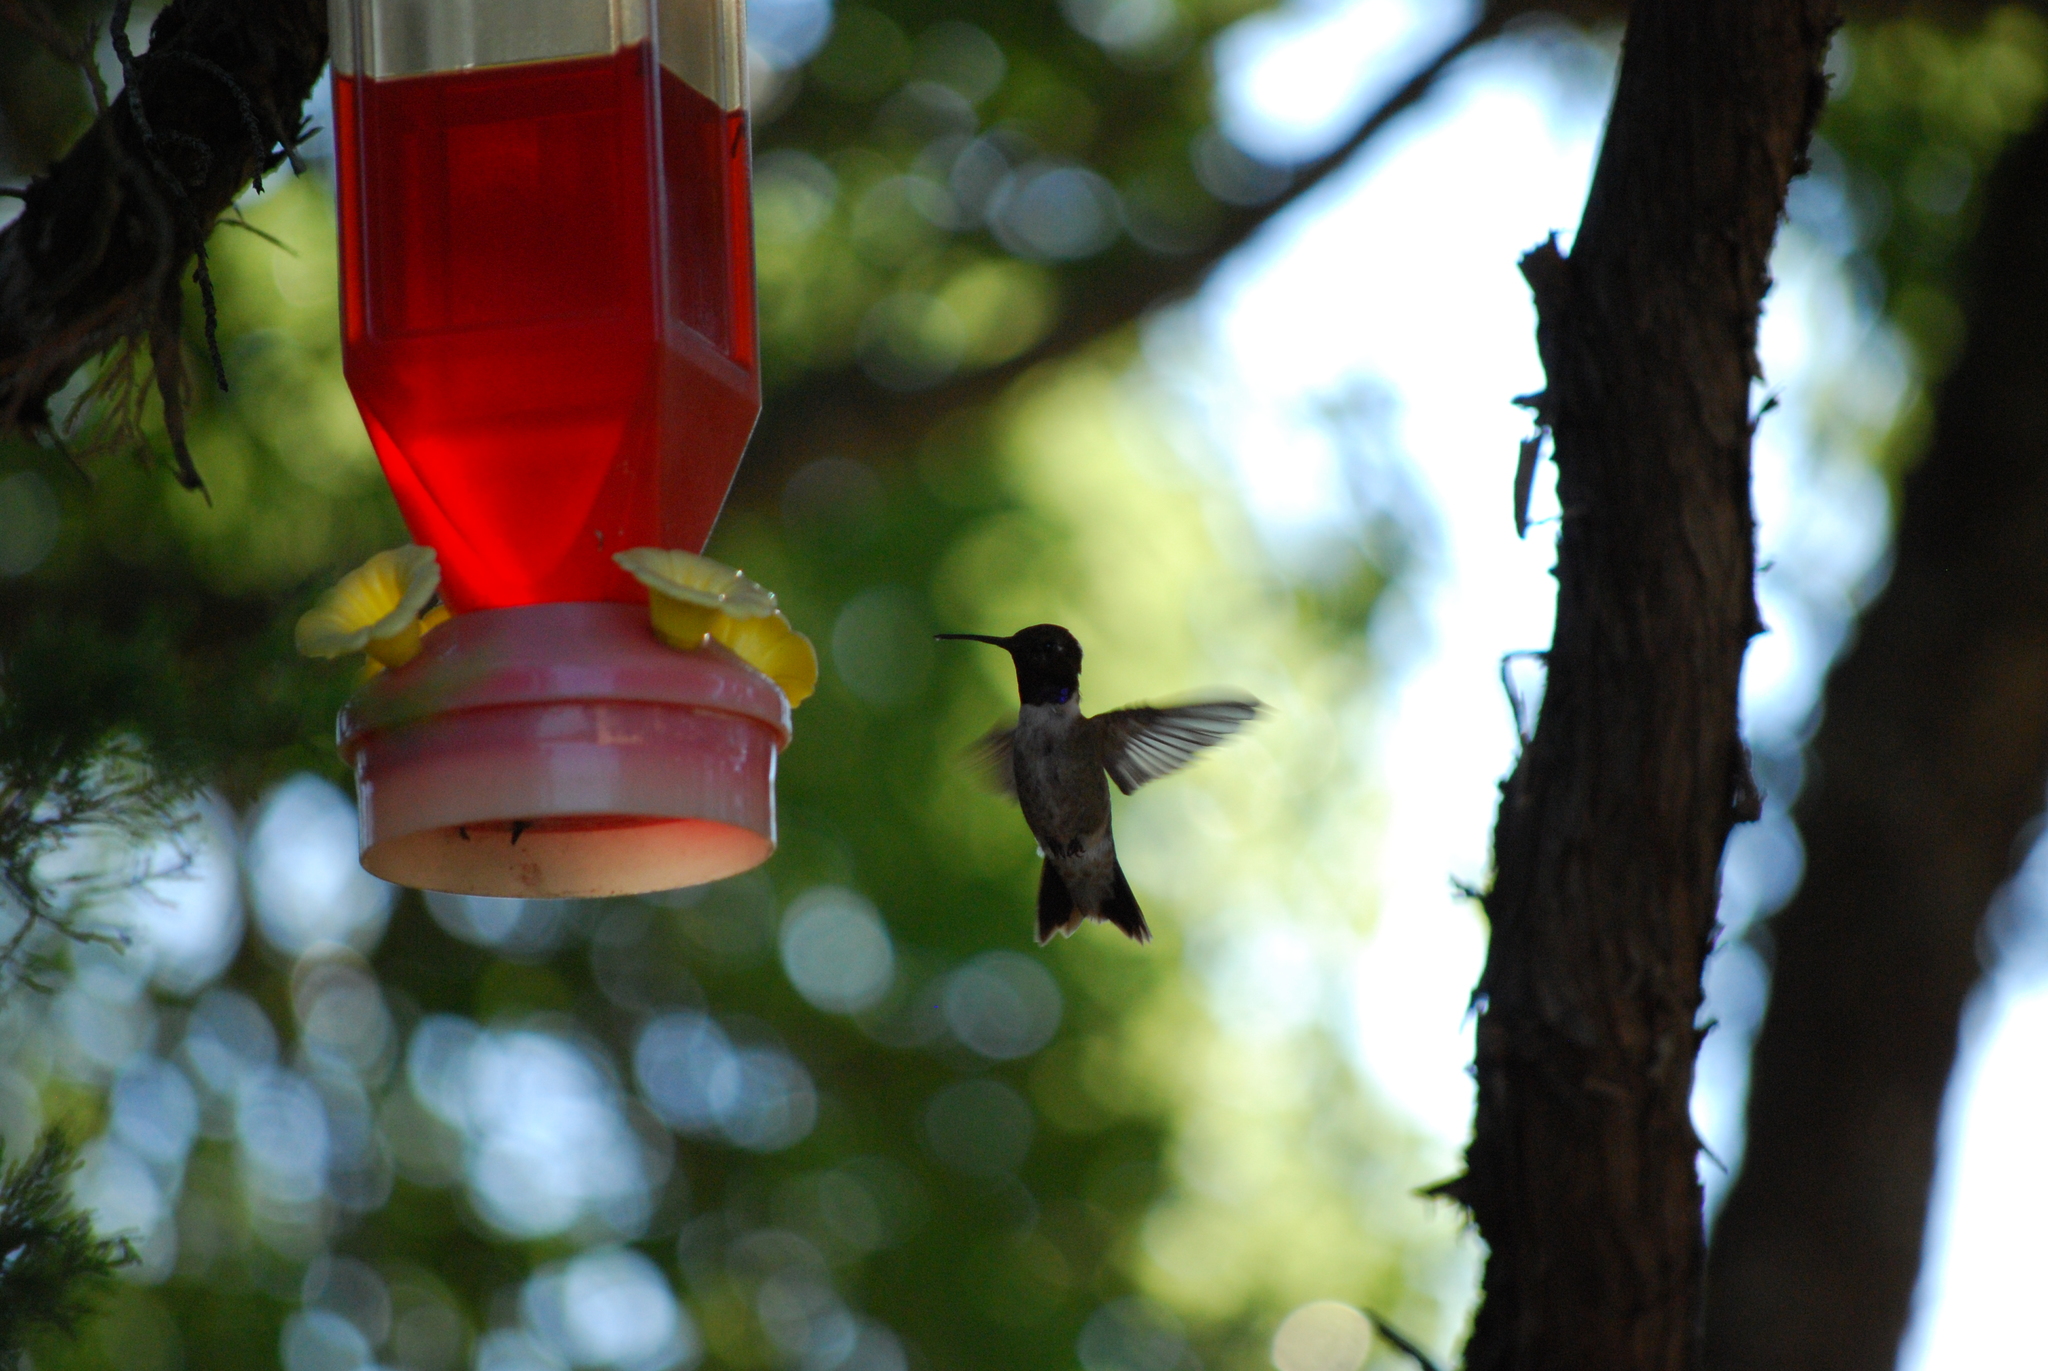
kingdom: Animalia
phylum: Chordata
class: Aves
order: Apodiformes
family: Trochilidae
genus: Archilochus
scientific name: Archilochus alexandri
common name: Black-chinned hummingbird
